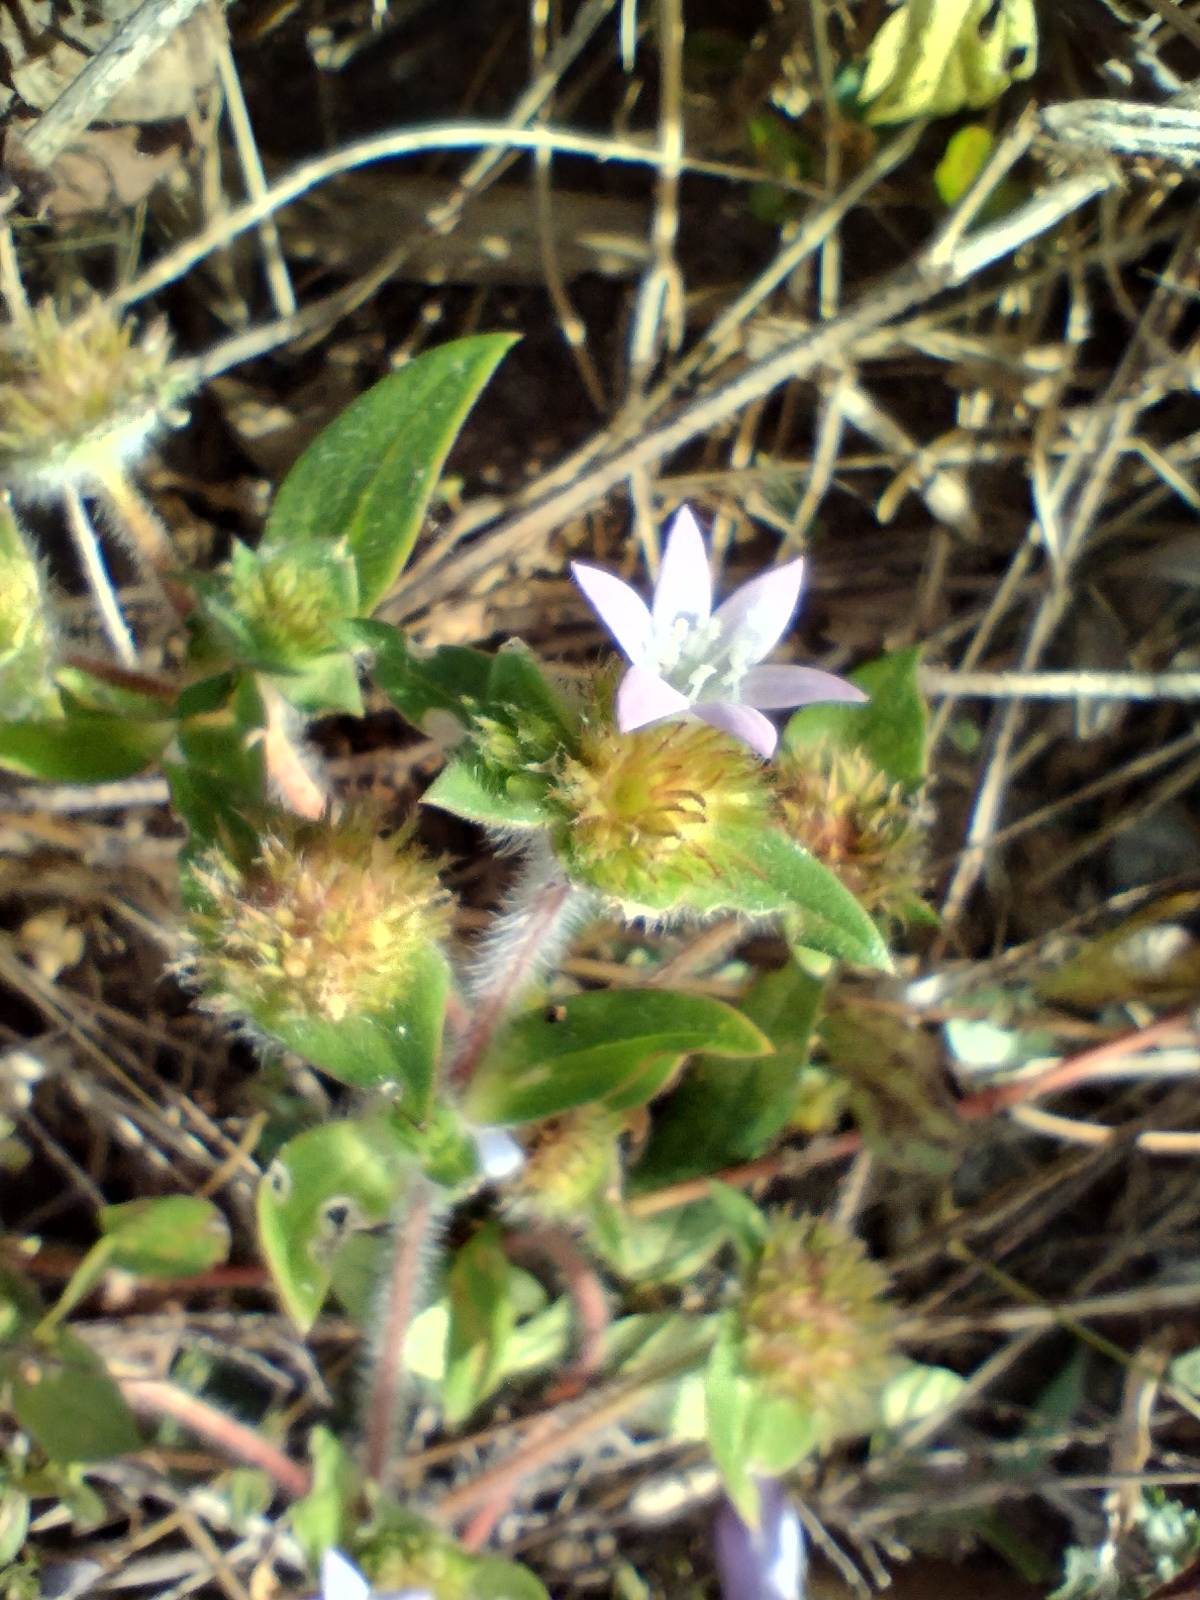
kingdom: Plantae
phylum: Tracheophyta
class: Magnoliopsida
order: Gentianales
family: Rubiaceae
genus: Richardia
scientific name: Richardia grandiflora
